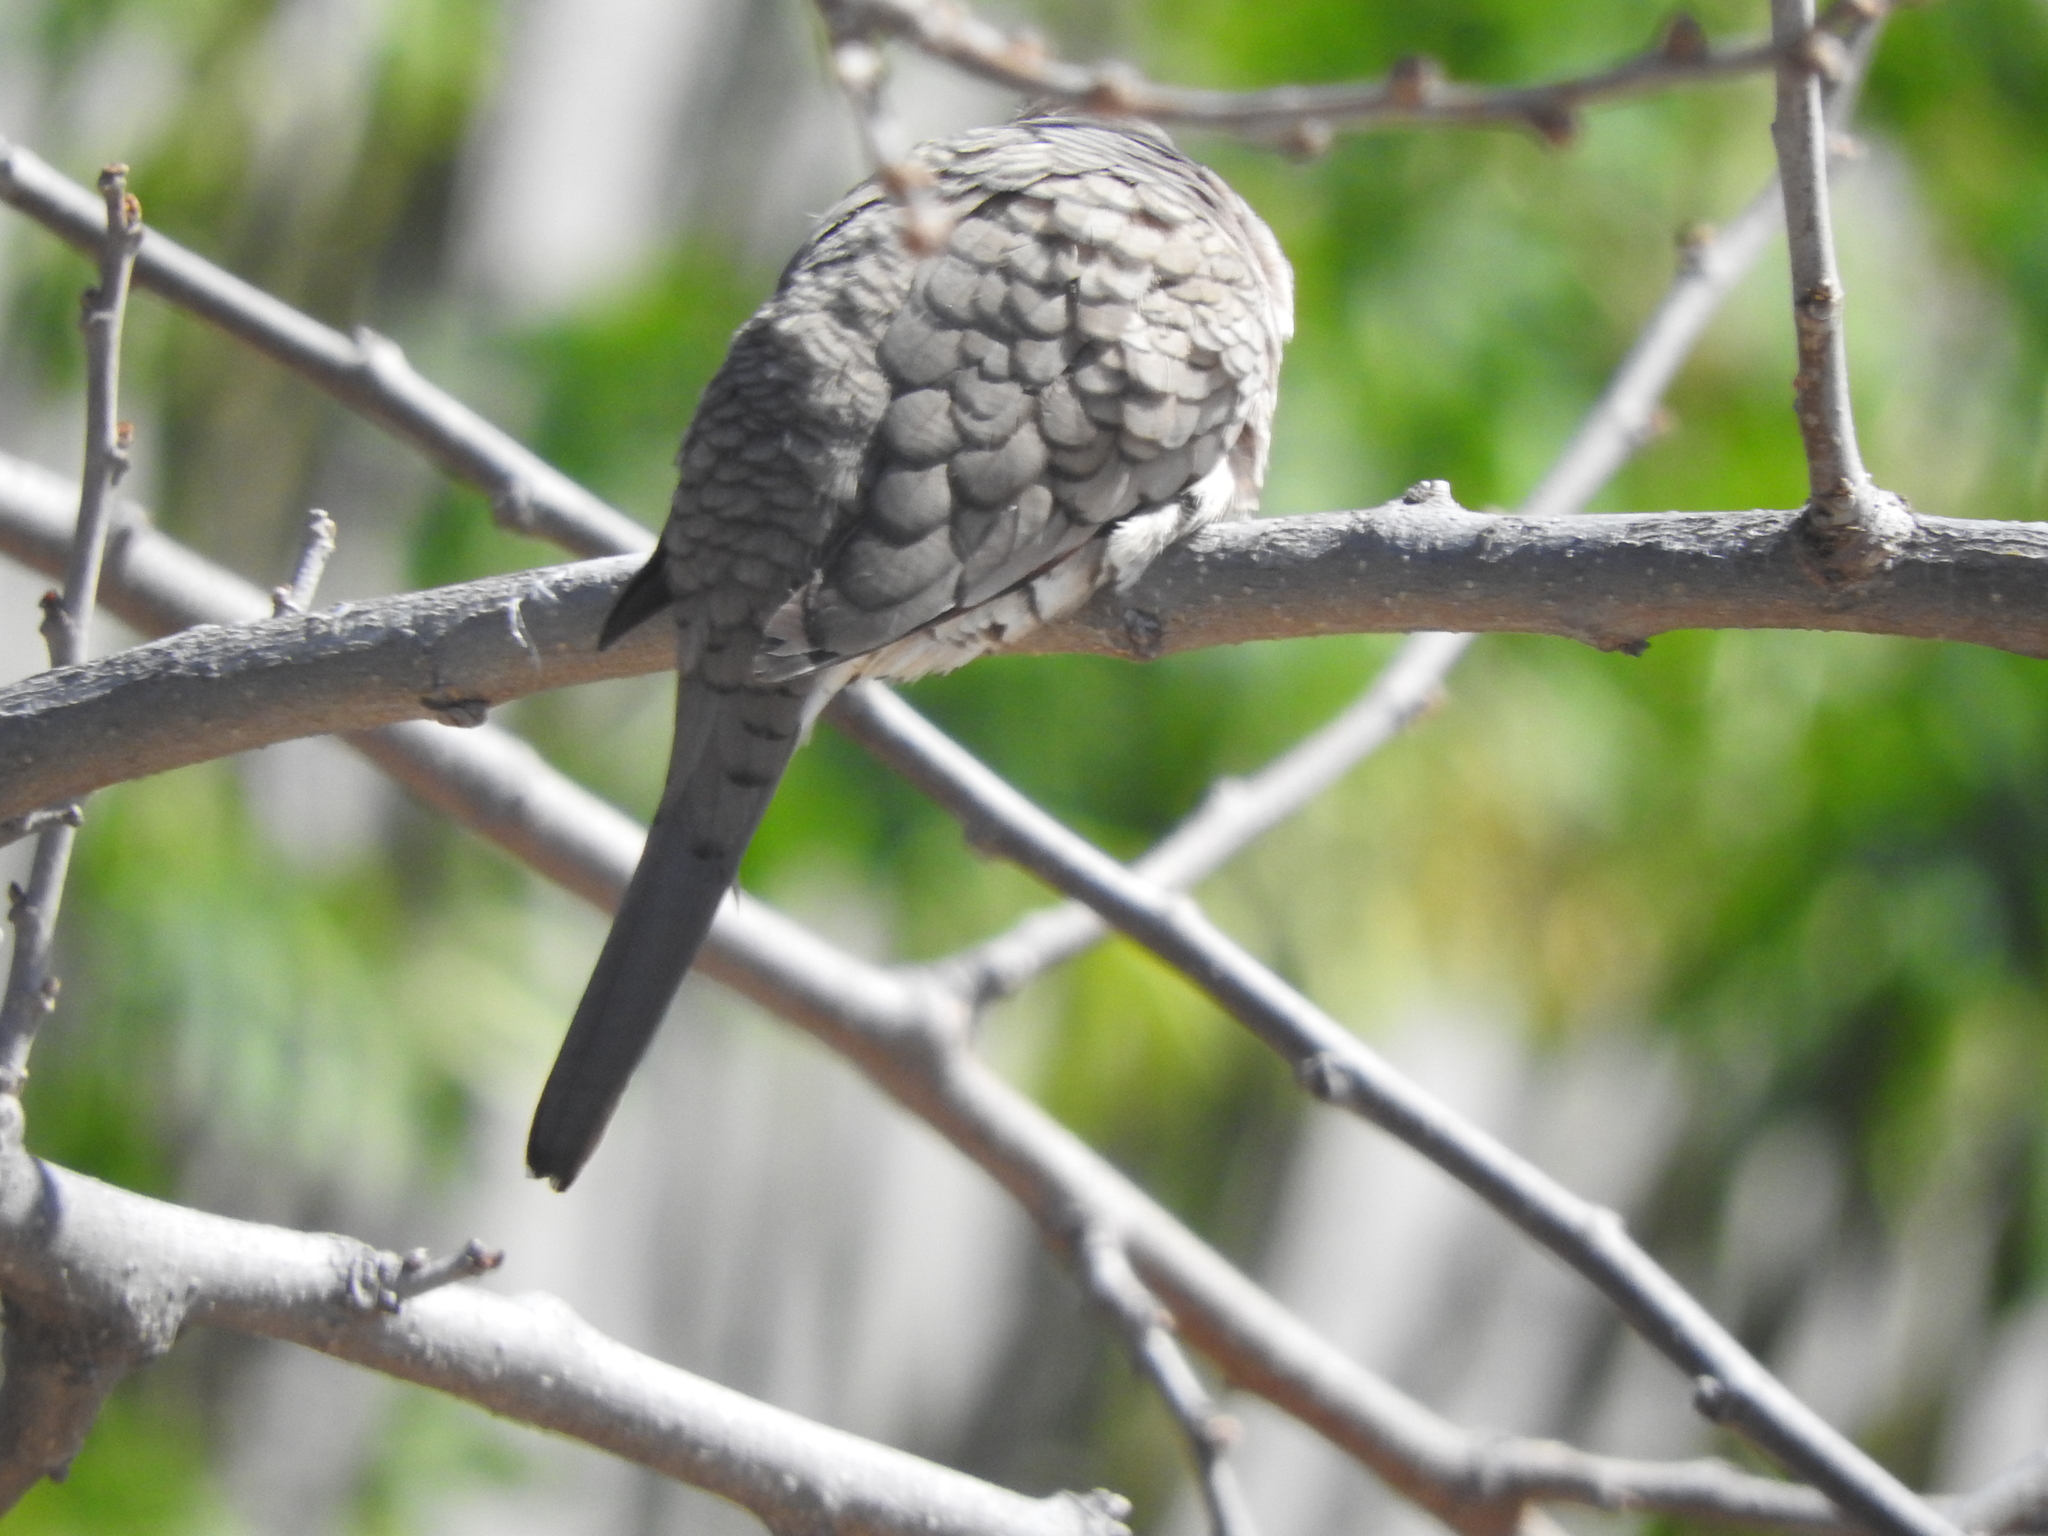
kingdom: Animalia
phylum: Chordata
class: Aves
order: Columbiformes
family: Columbidae
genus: Columbina
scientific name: Columbina inca
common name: Inca dove
